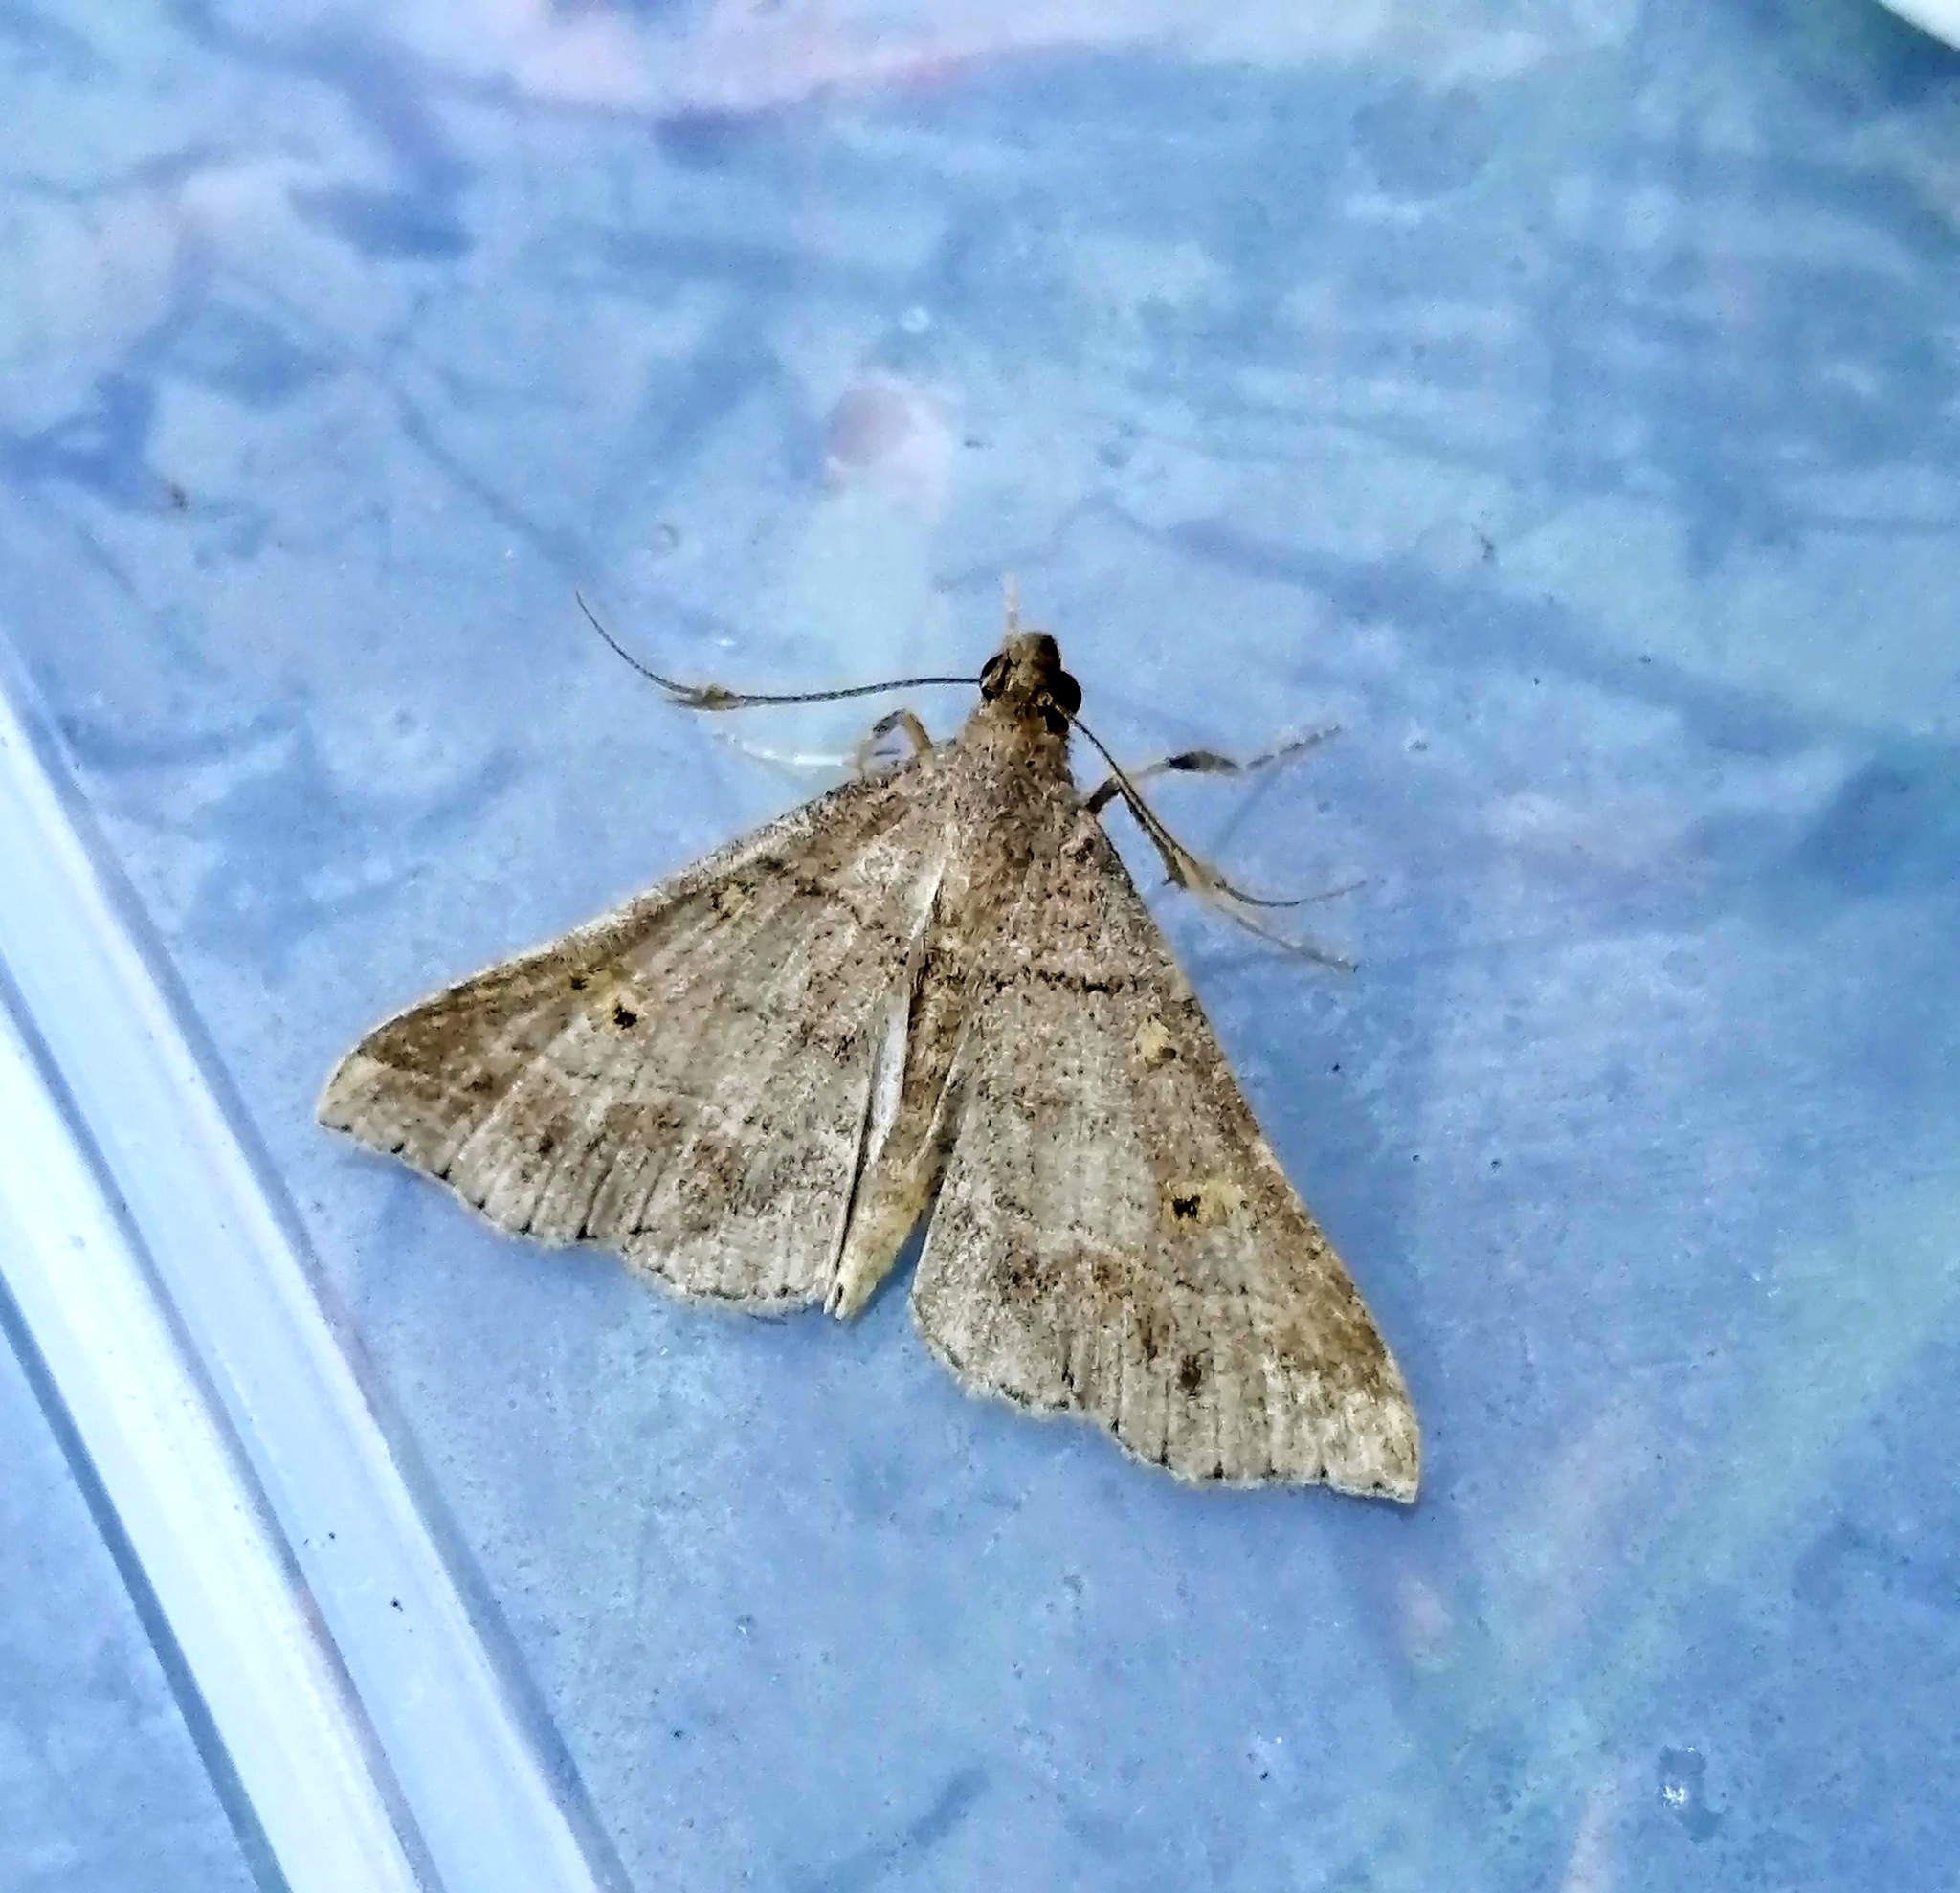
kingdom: Animalia
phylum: Arthropoda
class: Insecta
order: Lepidoptera
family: Erebidae
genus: Renia
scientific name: Renia flavipunctalis
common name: Yellow-spotted renia moth
